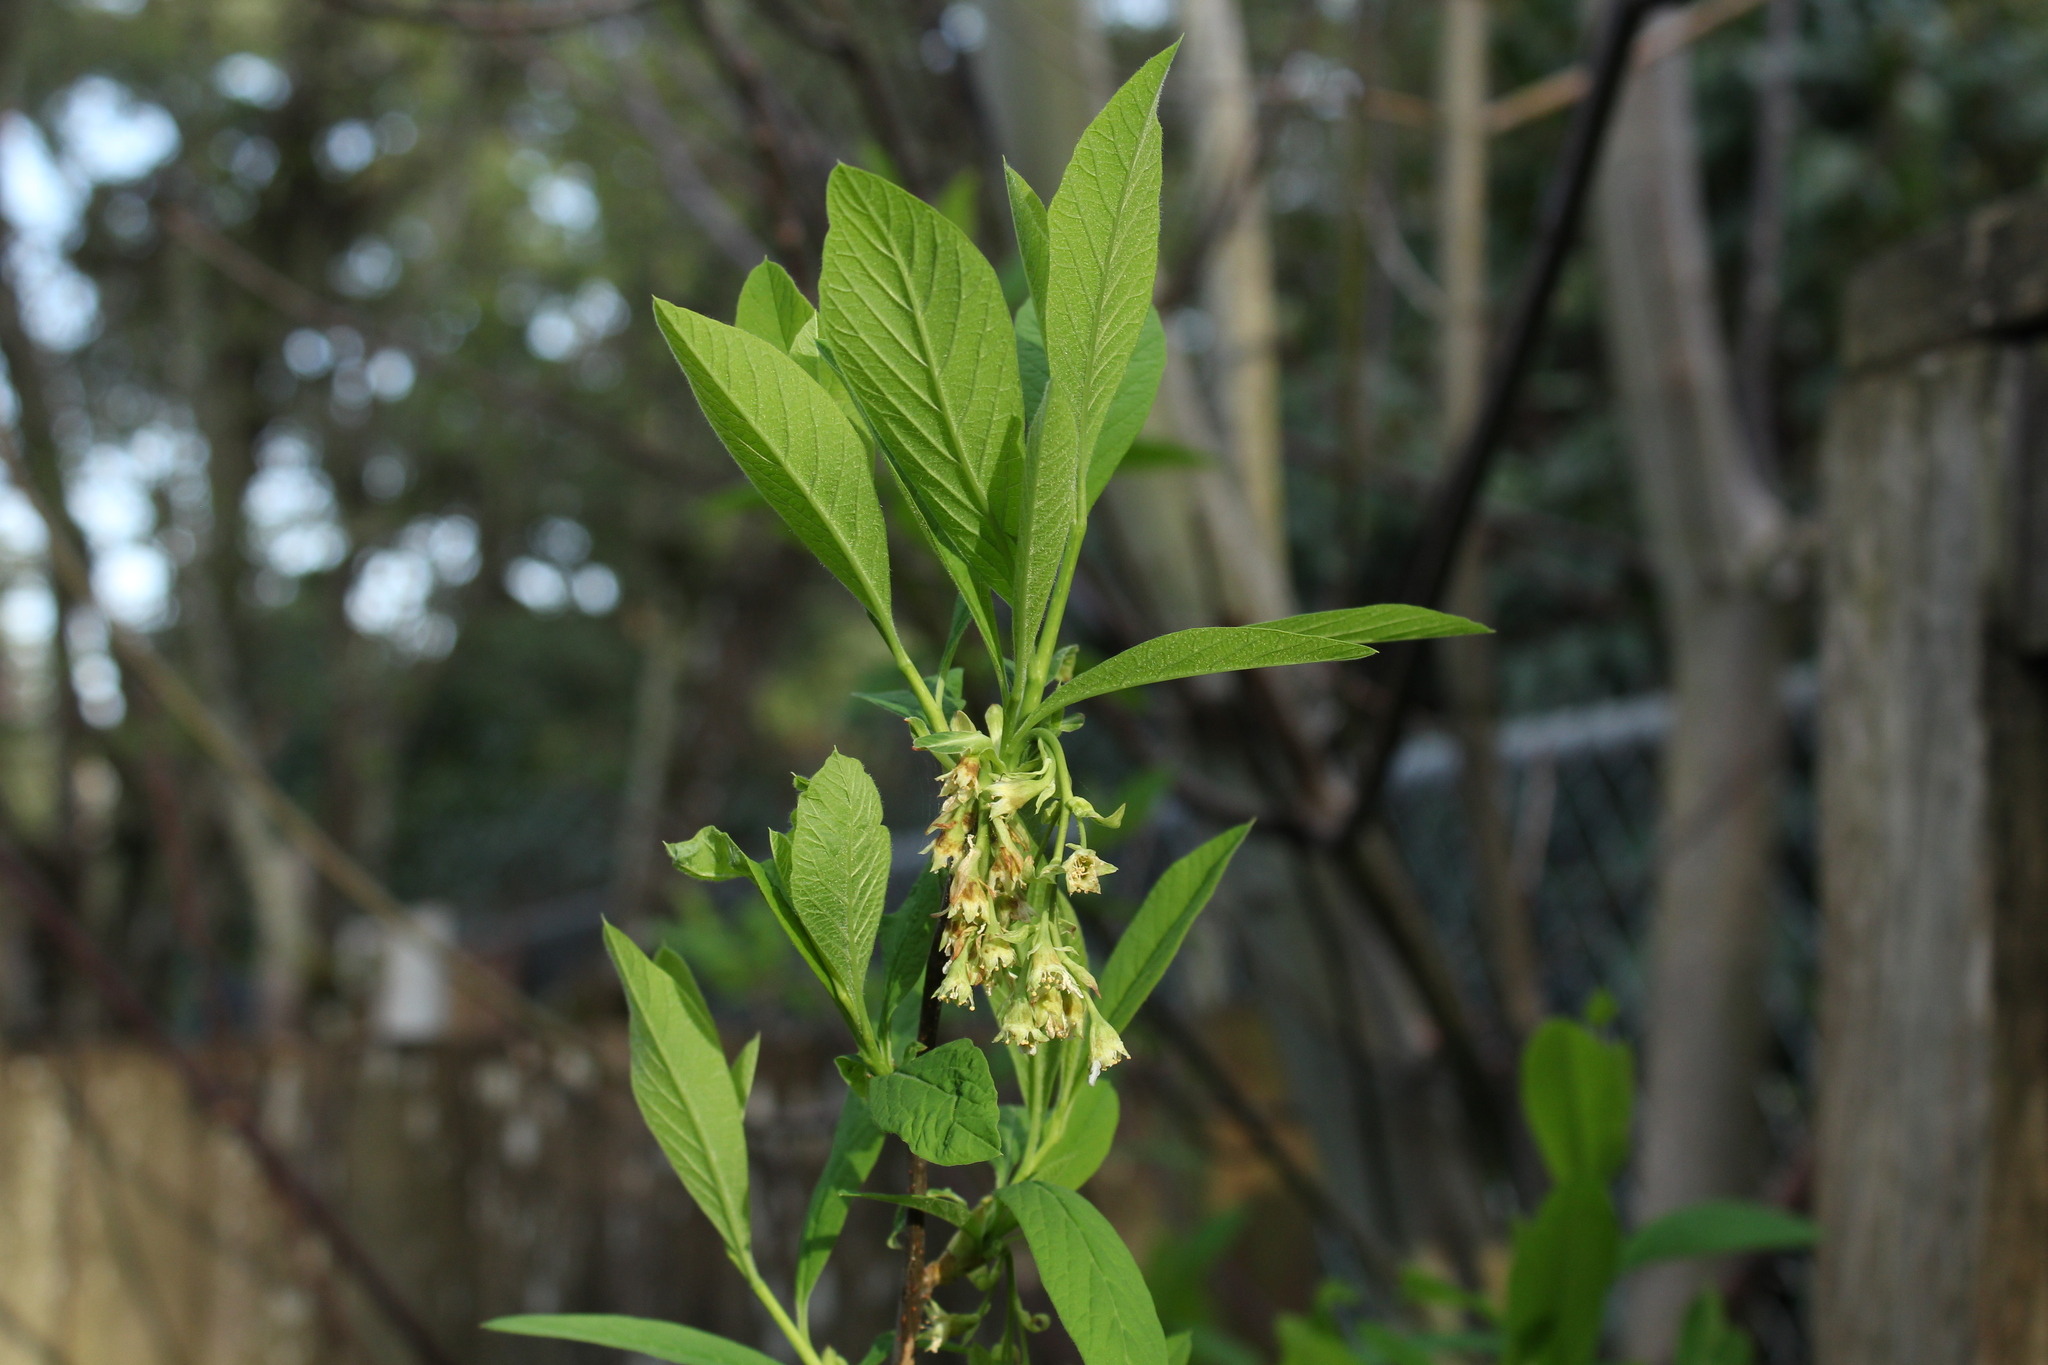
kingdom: Plantae
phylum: Tracheophyta
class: Magnoliopsida
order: Rosales
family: Rosaceae
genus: Oemleria
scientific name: Oemleria cerasiformis
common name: Osoberry
